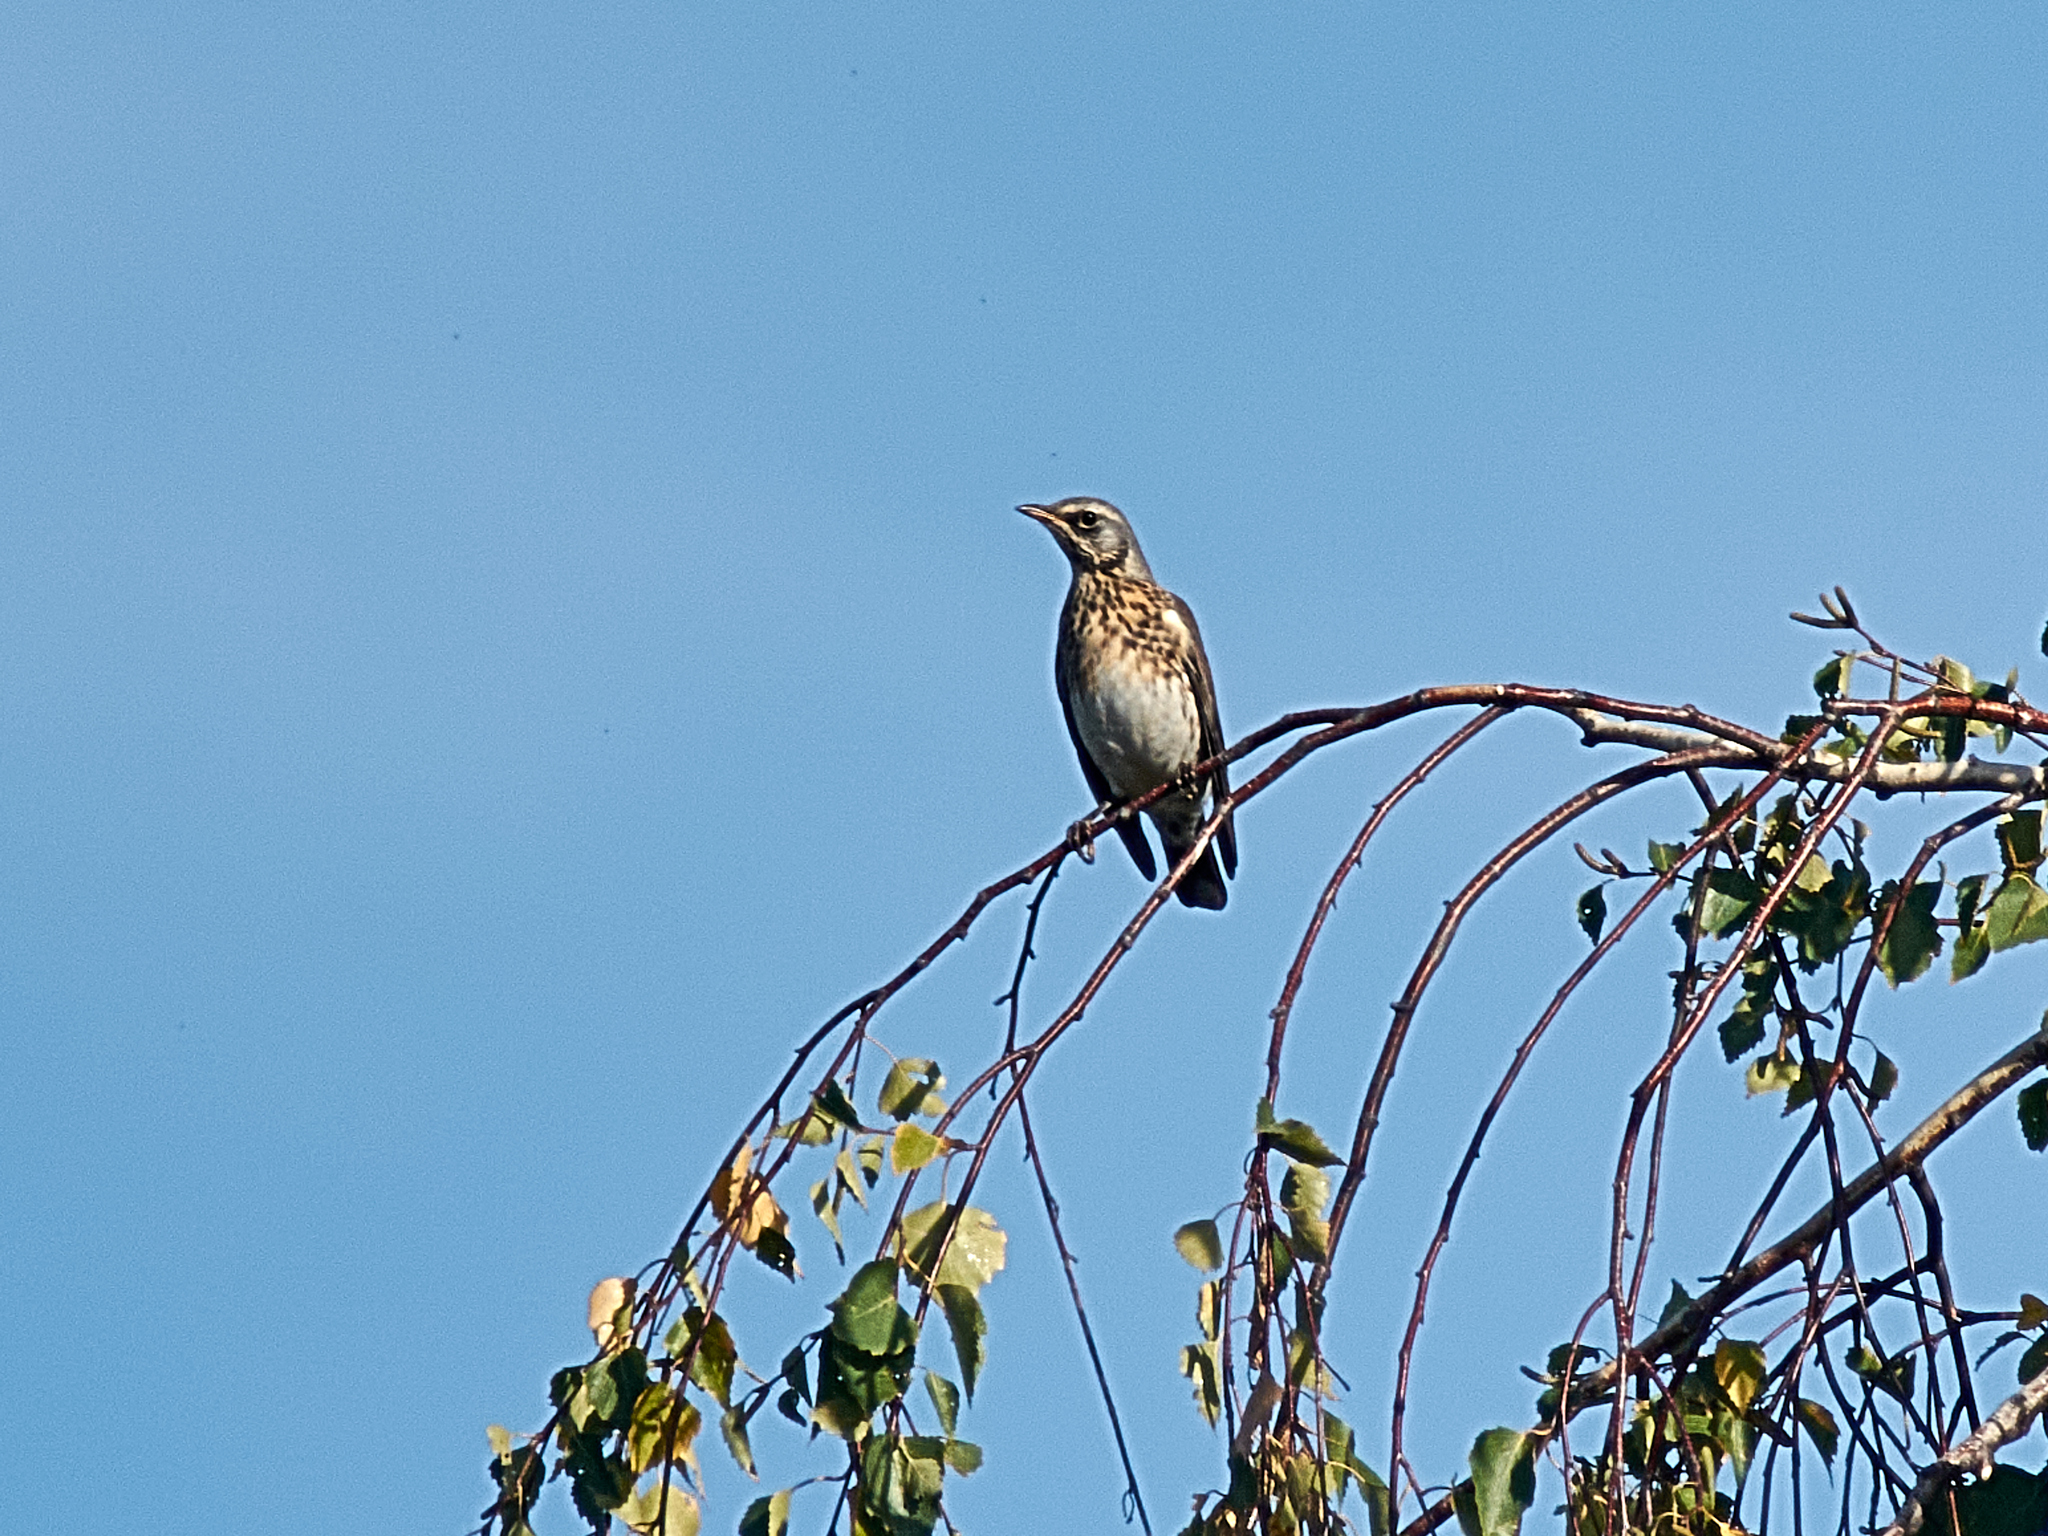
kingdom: Animalia
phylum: Chordata
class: Aves
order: Passeriformes
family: Turdidae
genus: Turdus
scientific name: Turdus pilaris
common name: Fieldfare
